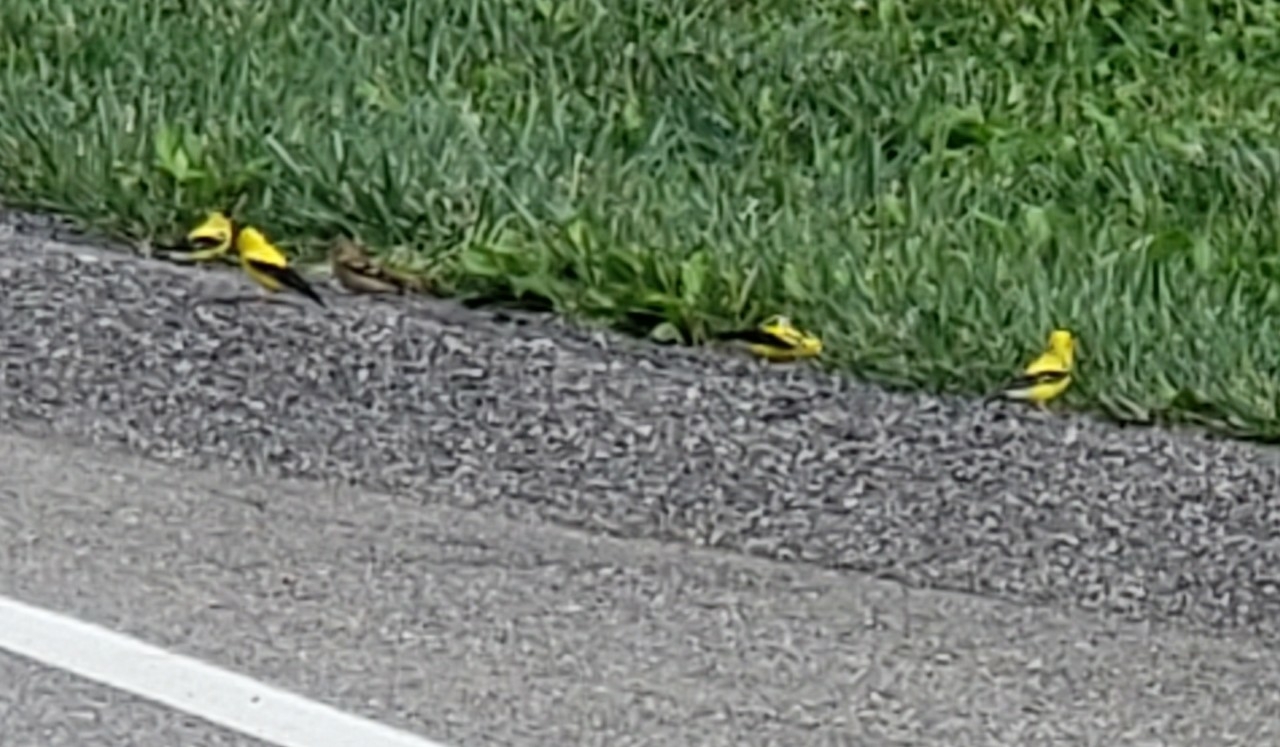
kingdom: Animalia
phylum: Chordata
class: Aves
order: Passeriformes
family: Fringillidae
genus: Spinus
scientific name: Spinus tristis
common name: American goldfinch
